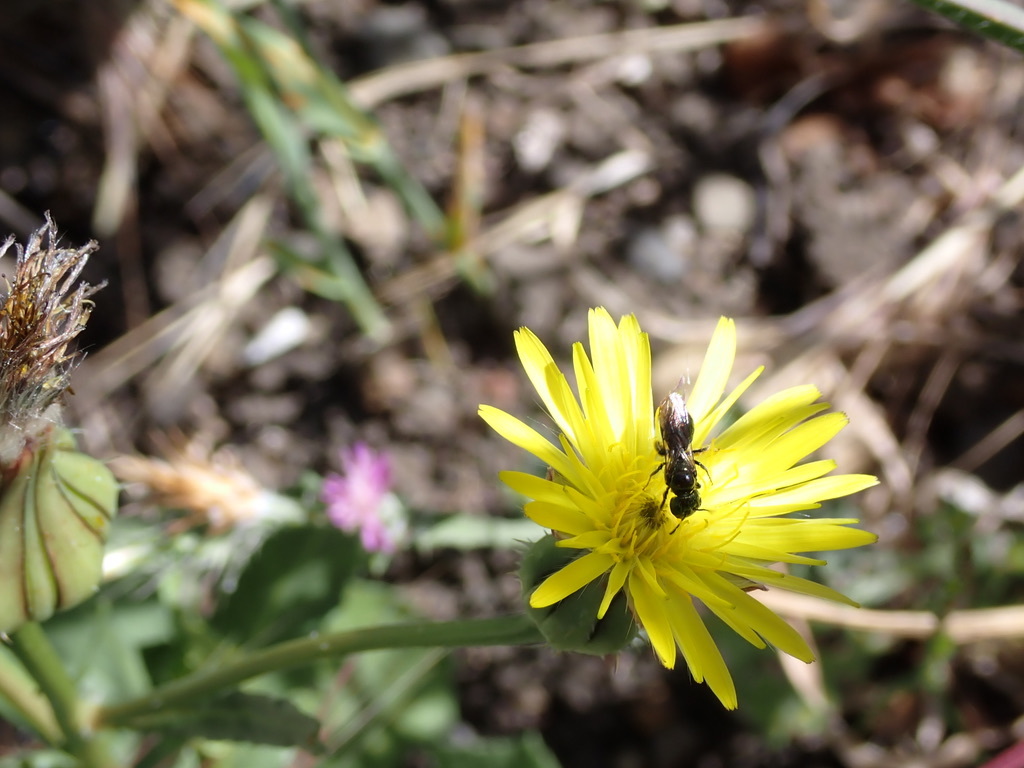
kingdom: Plantae
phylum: Tracheophyta
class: Magnoliopsida
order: Asterales
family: Asteraceae
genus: Urospermum
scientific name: Urospermum picroides
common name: False hawkbit
